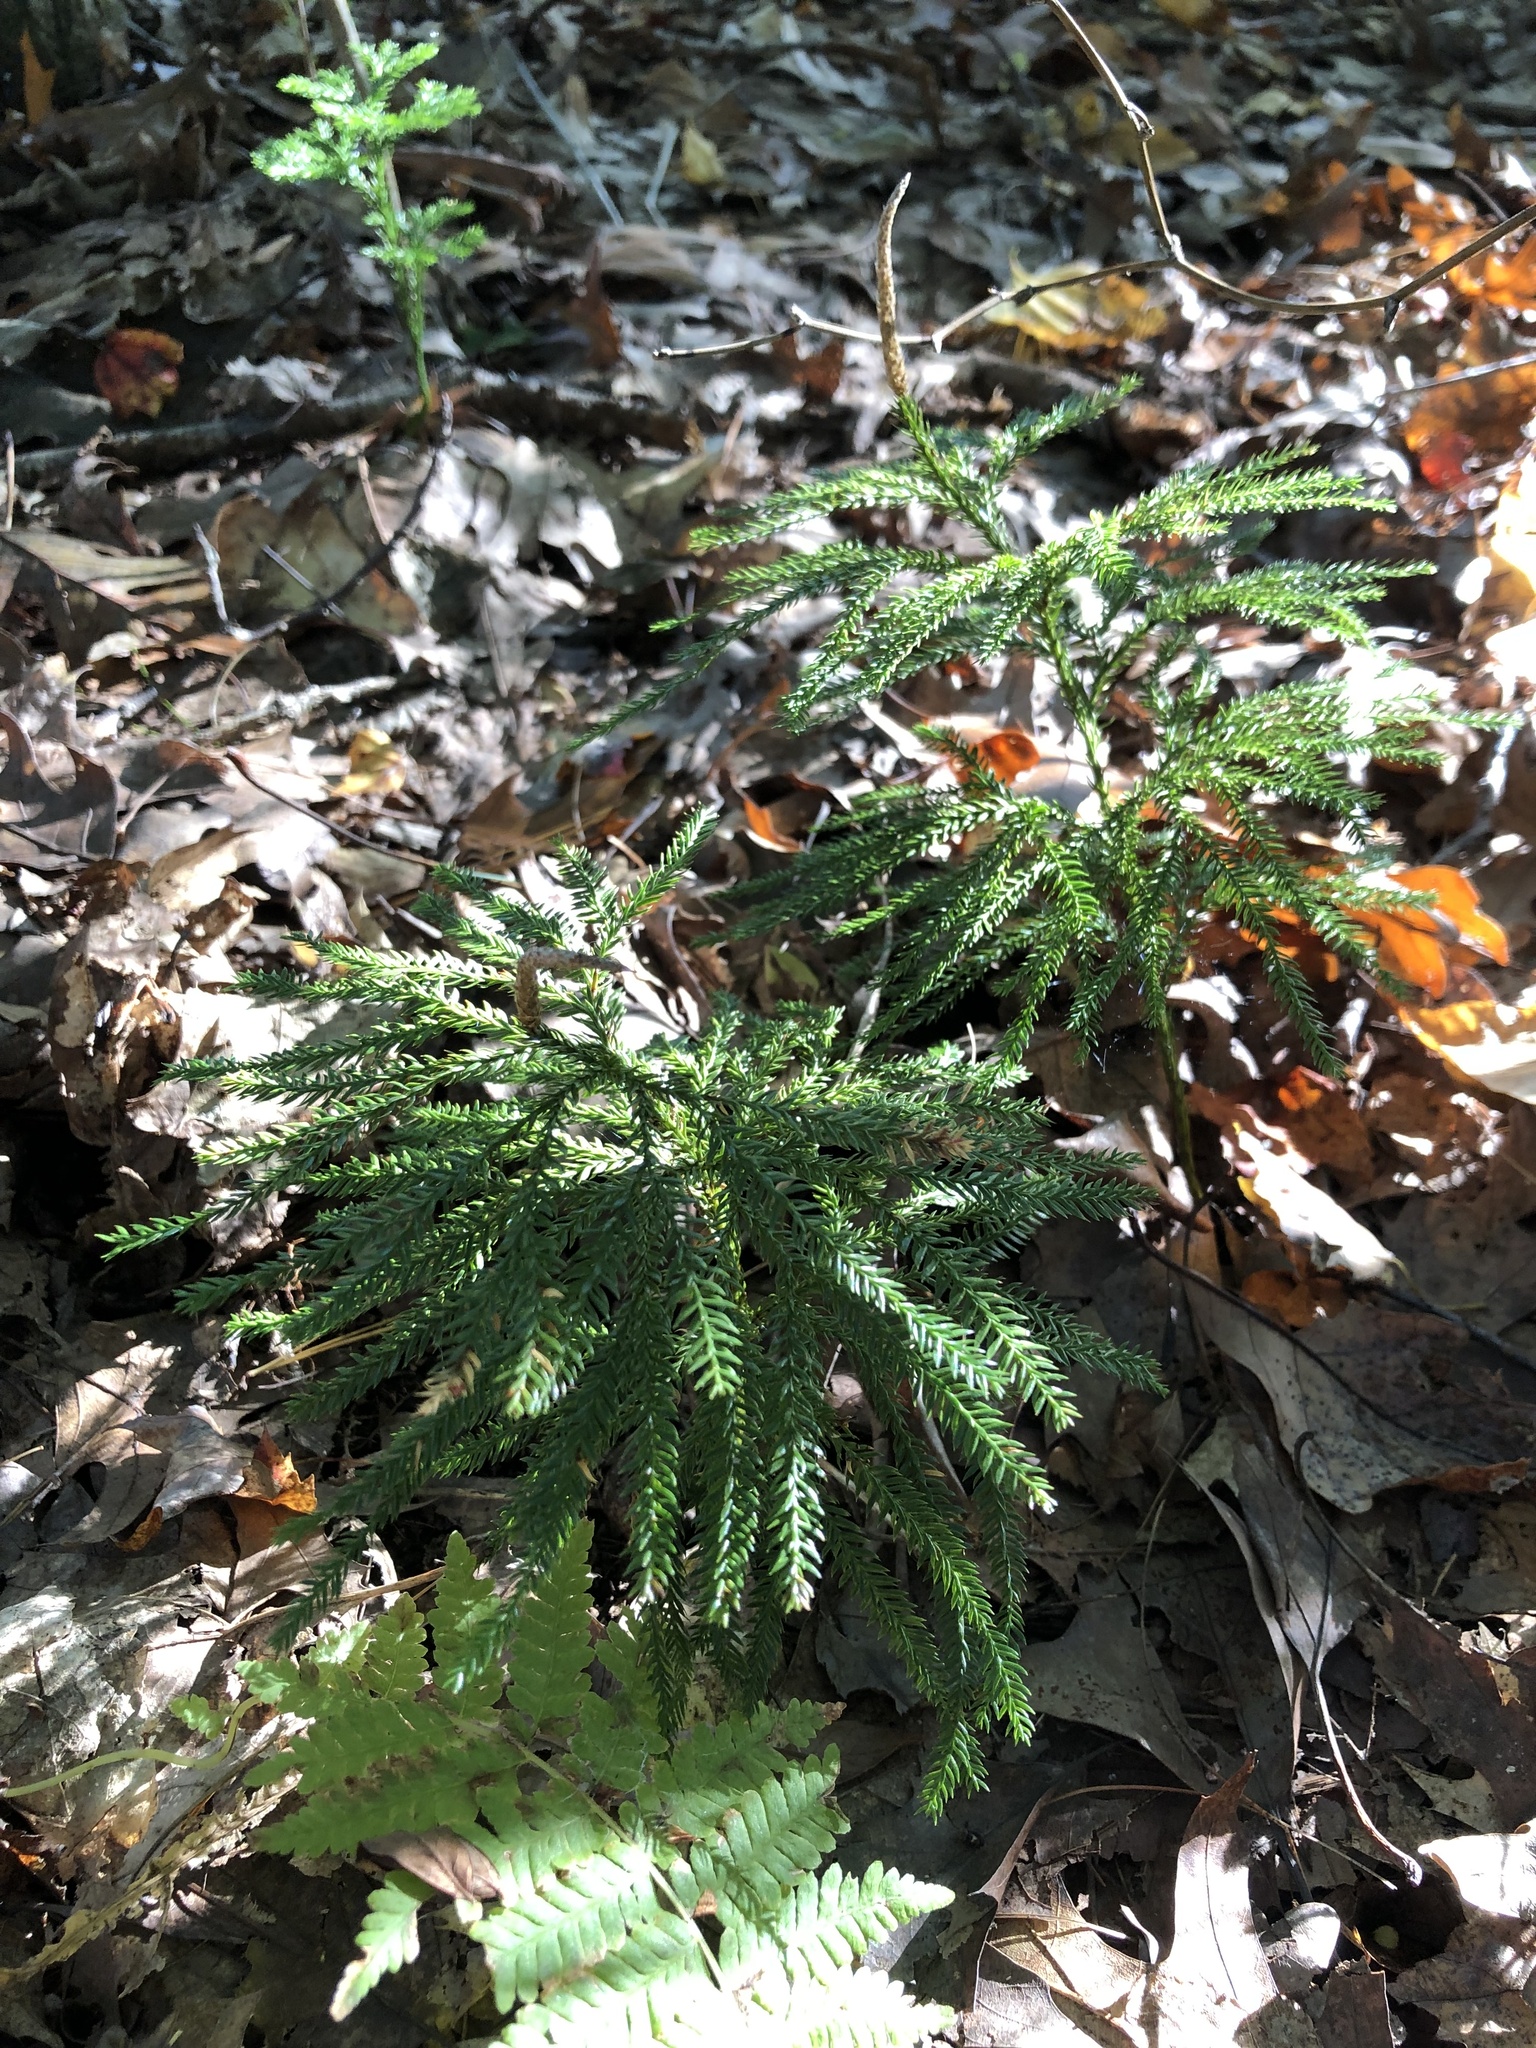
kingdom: Plantae
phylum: Tracheophyta
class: Lycopodiopsida
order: Lycopodiales
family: Lycopodiaceae
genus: Dendrolycopodium
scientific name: Dendrolycopodium obscurum
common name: Common ground-pine
